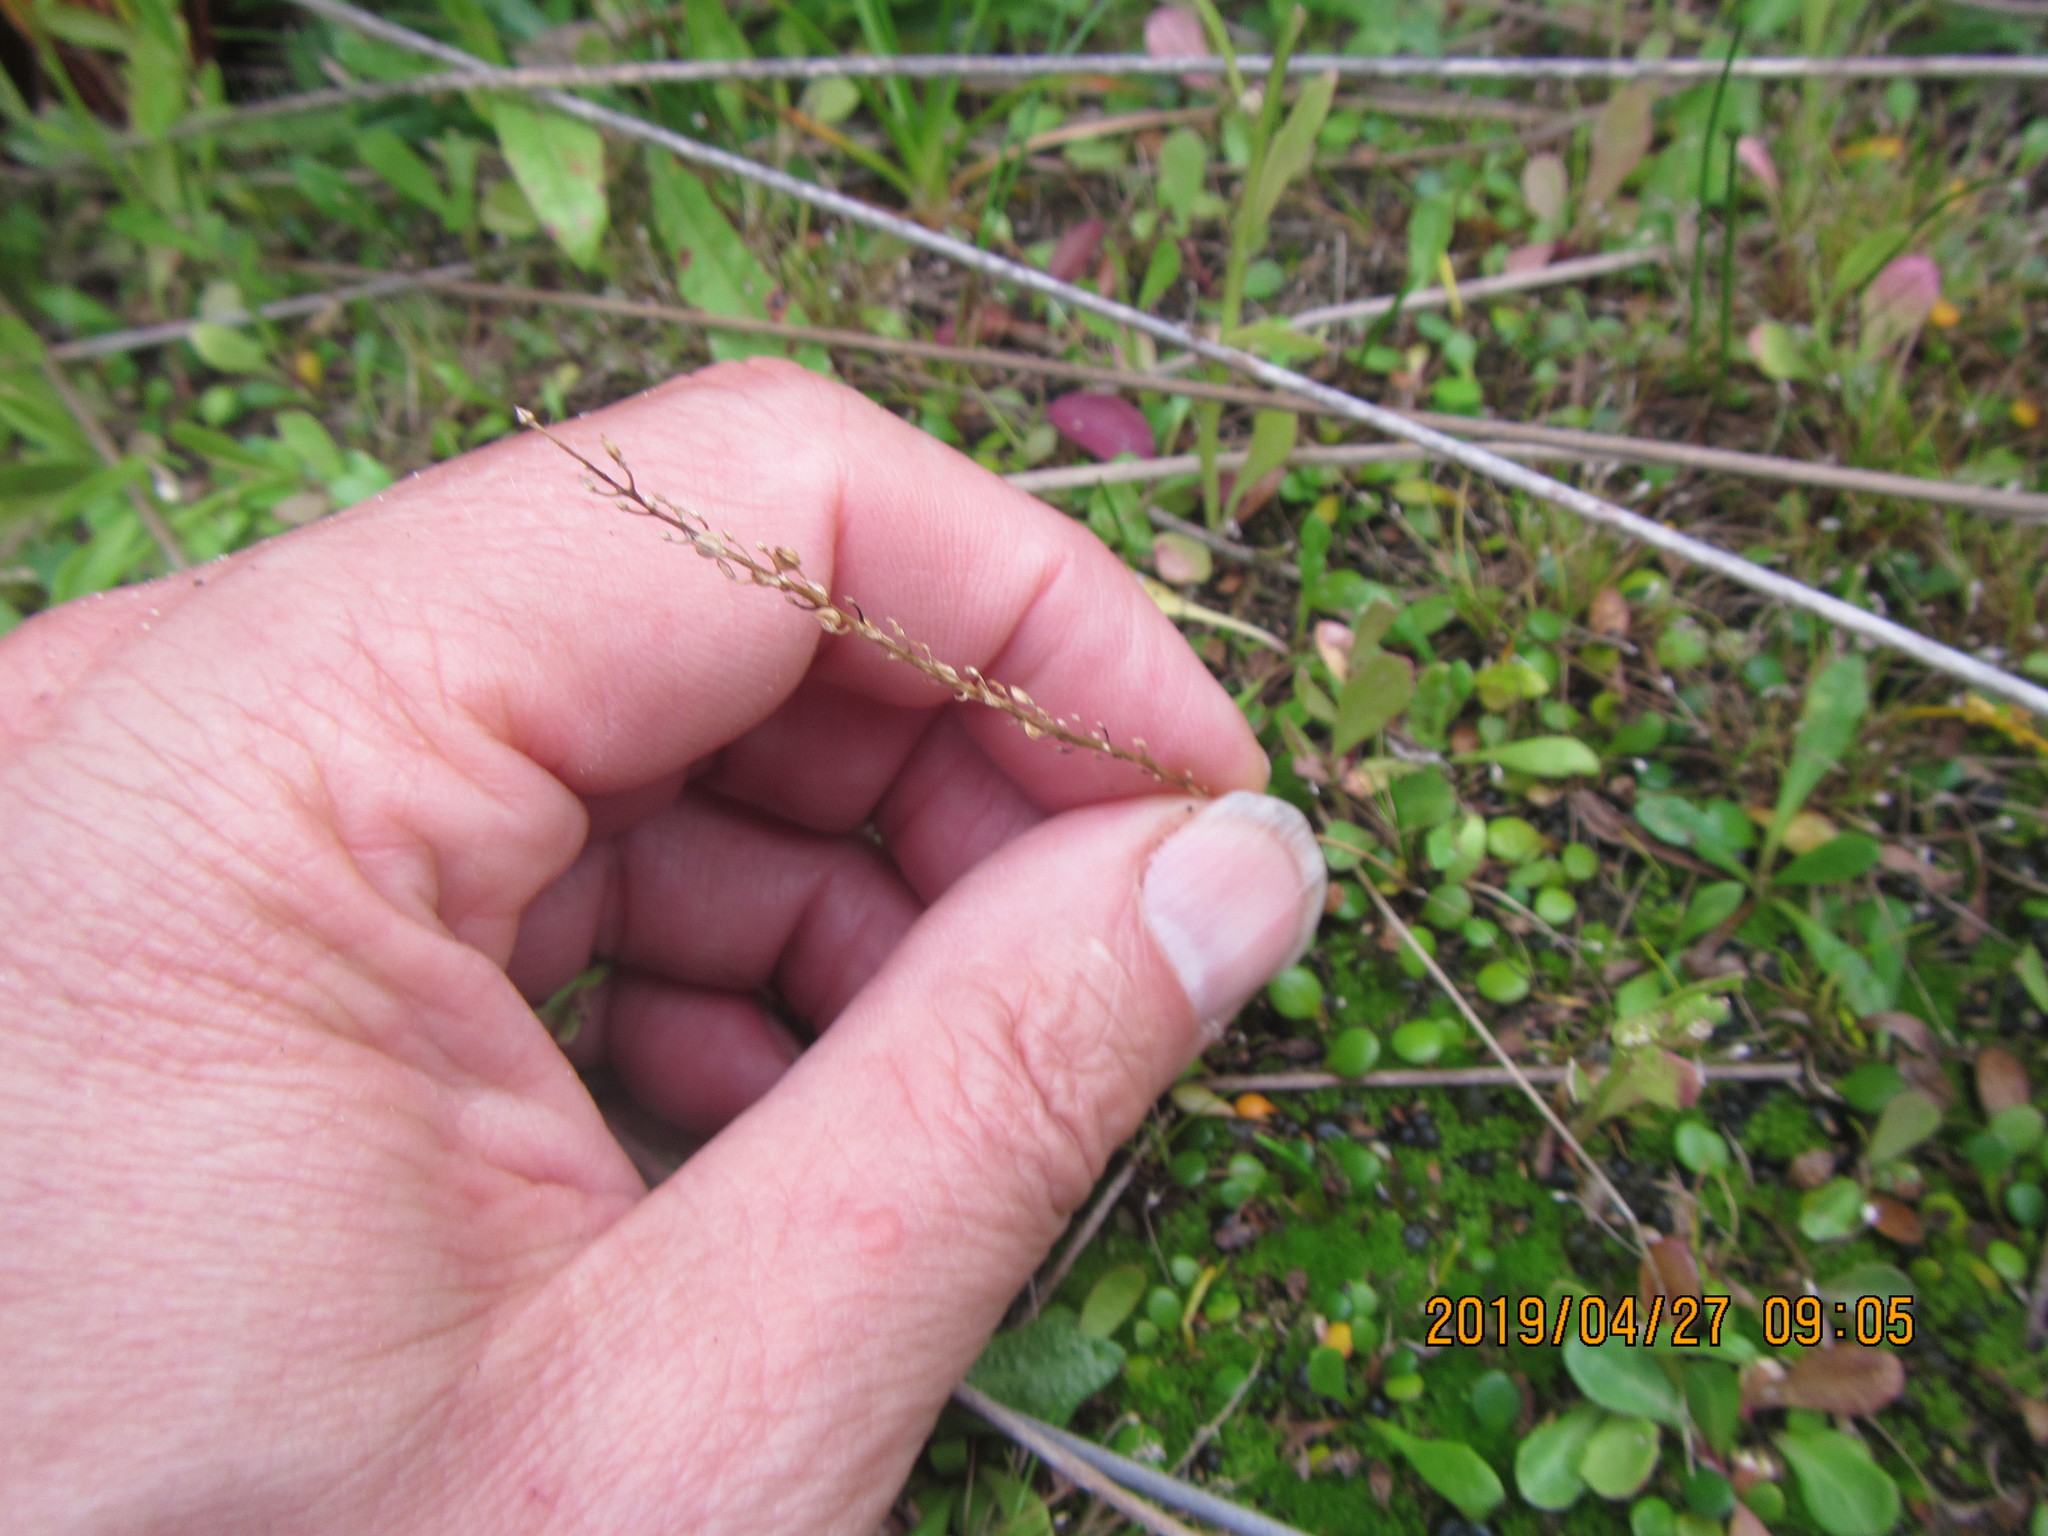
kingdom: Plantae
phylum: Tracheophyta
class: Liliopsida
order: Alismatales
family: Juncaginaceae
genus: Triglochin
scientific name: Triglochin striata
